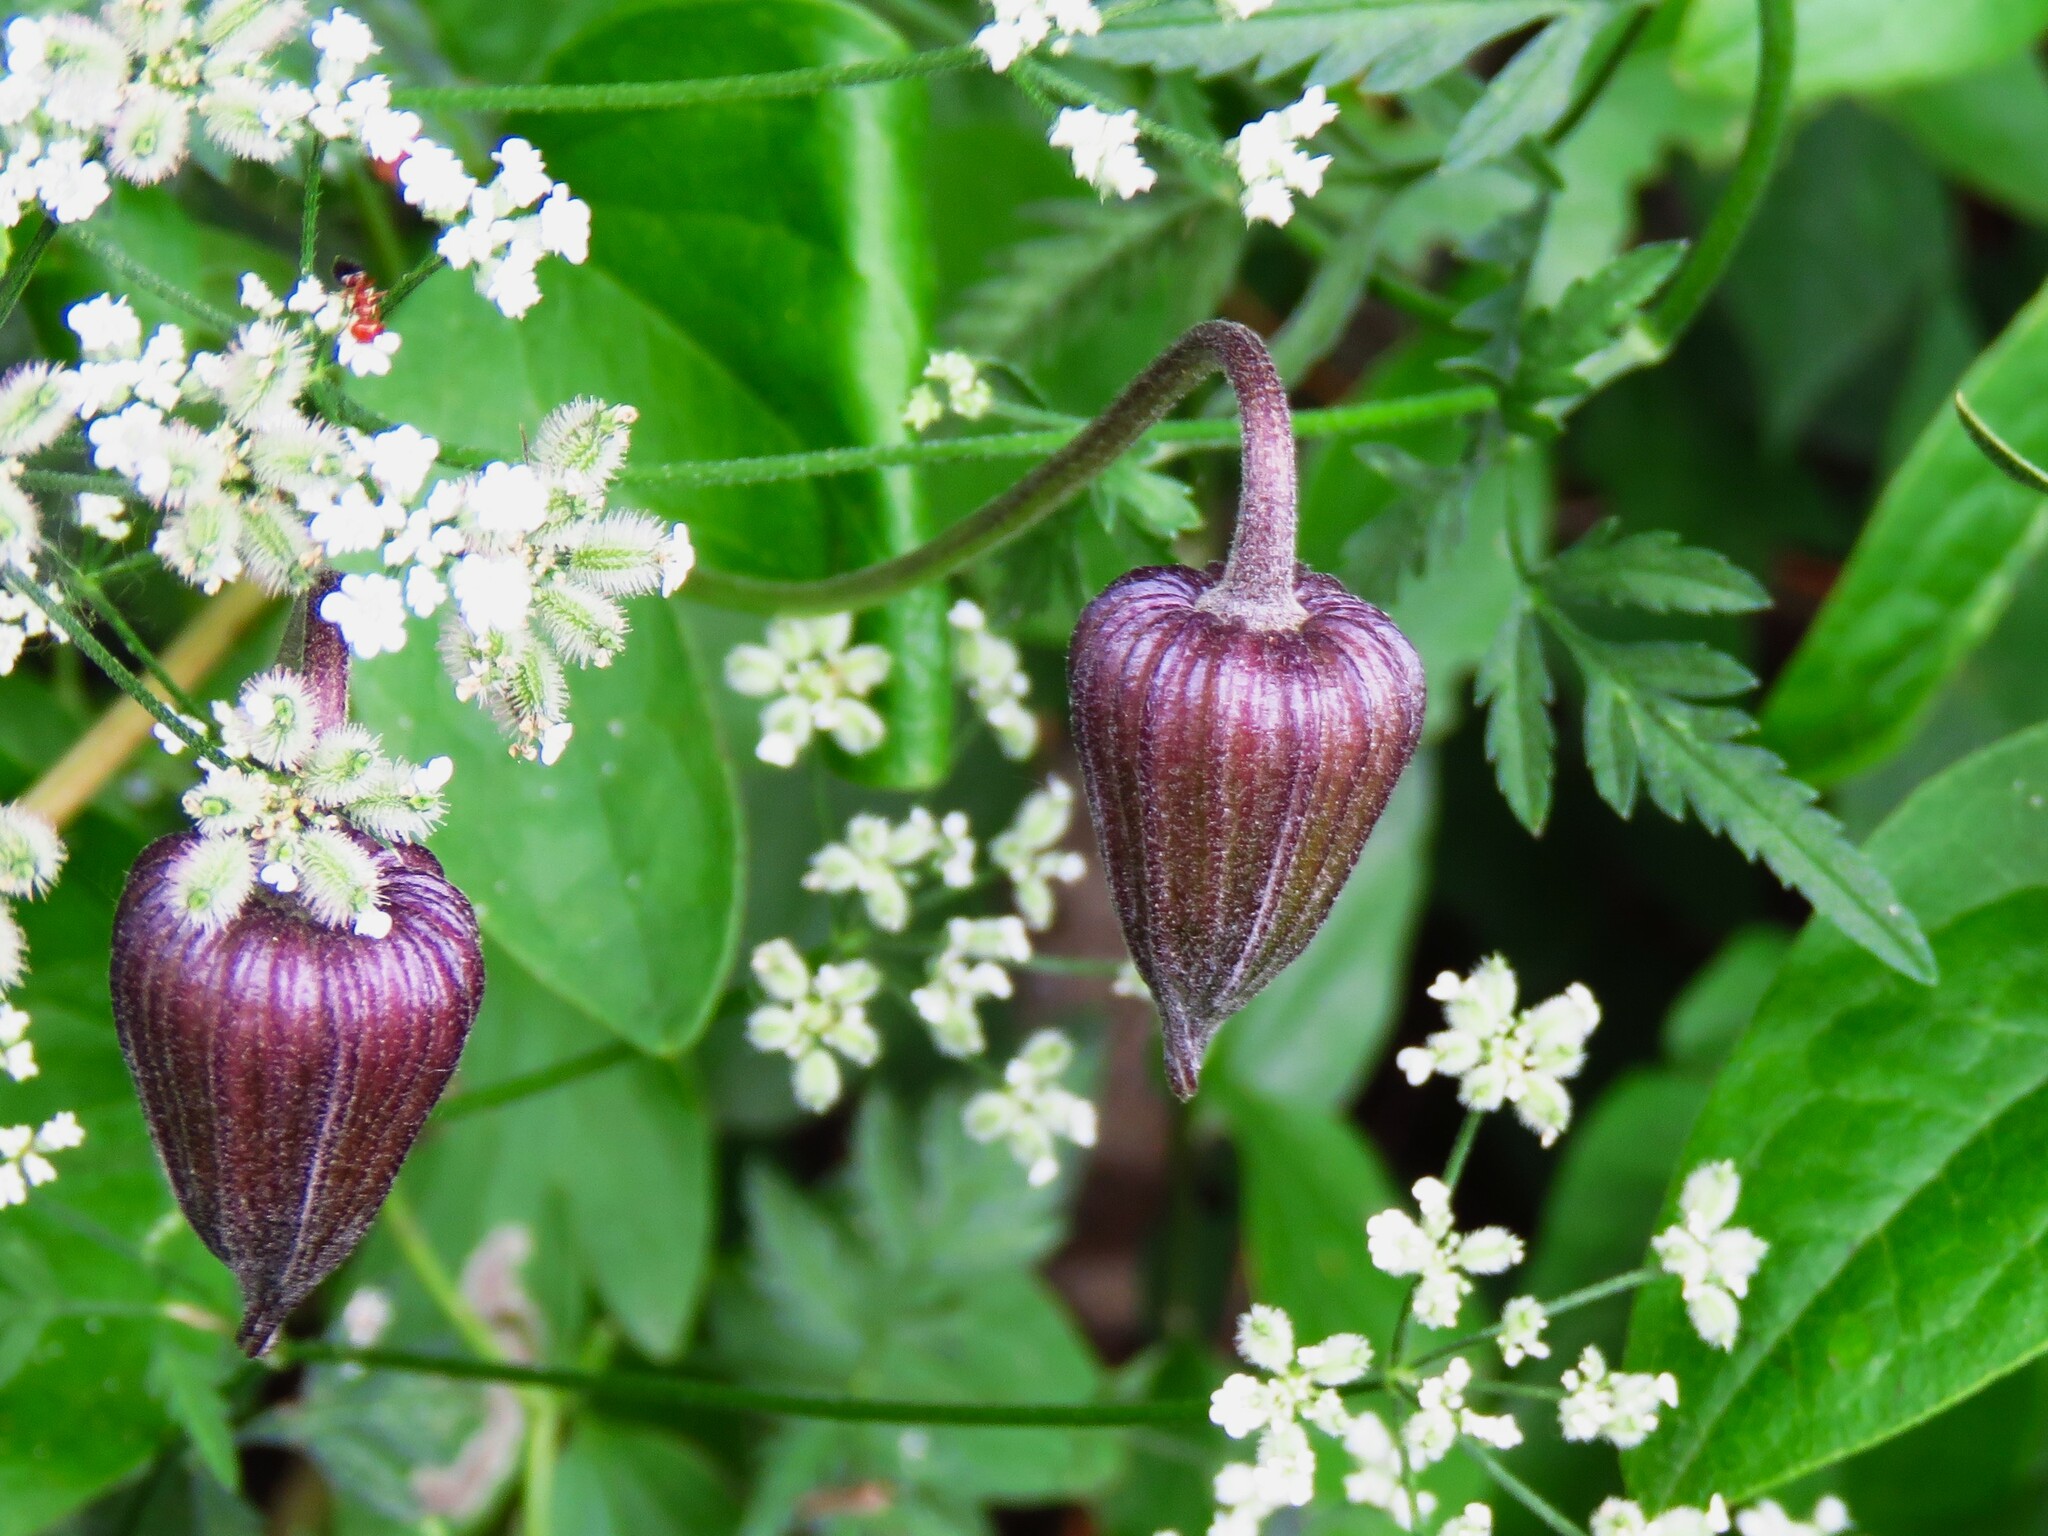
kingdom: Plantae
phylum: Tracheophyta
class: Magnoliopsida
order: Ranunculales
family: Ranunculaceae
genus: Clematis
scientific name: Clematis pitcheri
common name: Bellflower clematis
